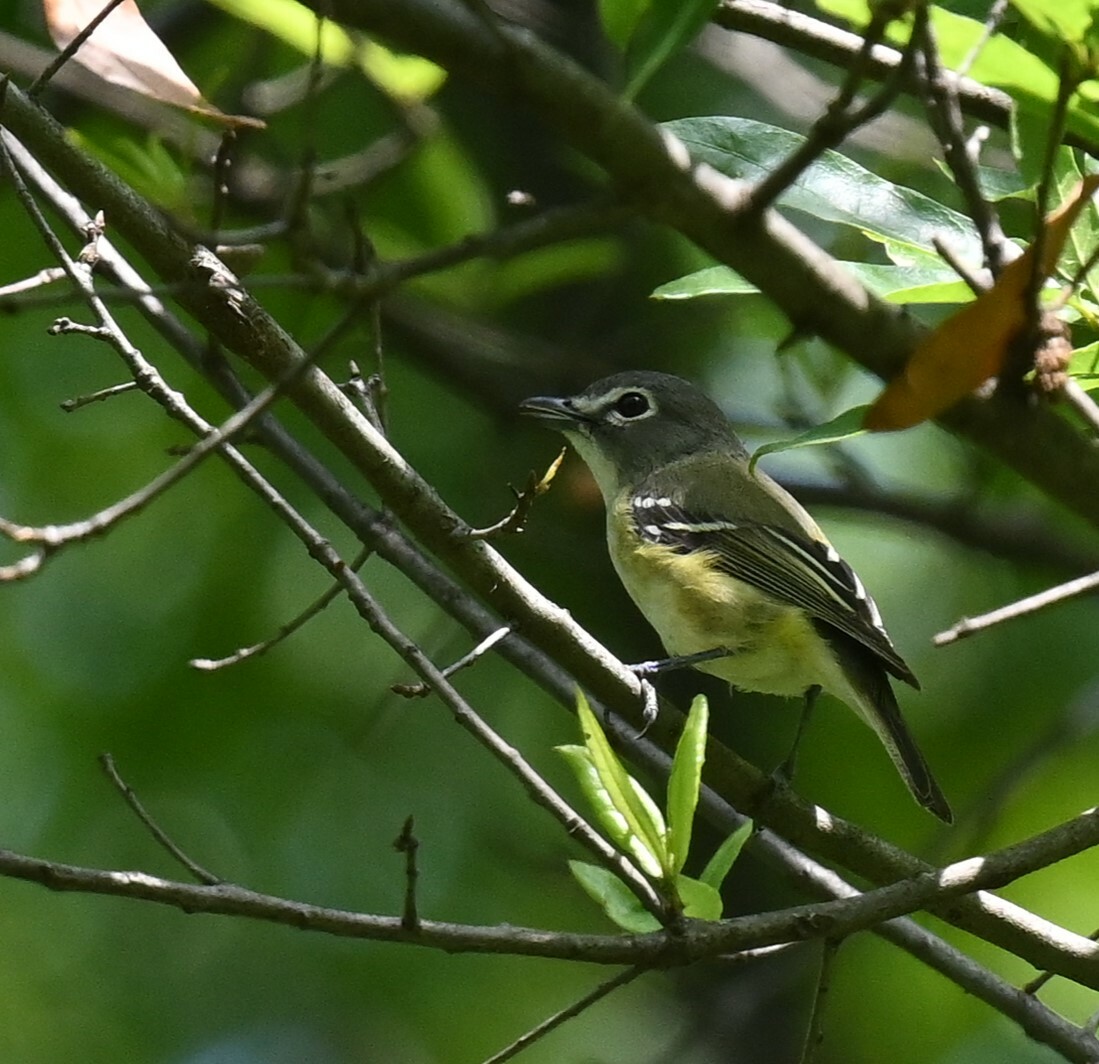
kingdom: Animalia
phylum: Chordata
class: Aves
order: Passeriformes
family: Vireonidae
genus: Vireo
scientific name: Vireo solitarius
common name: Blue-headed vireo
